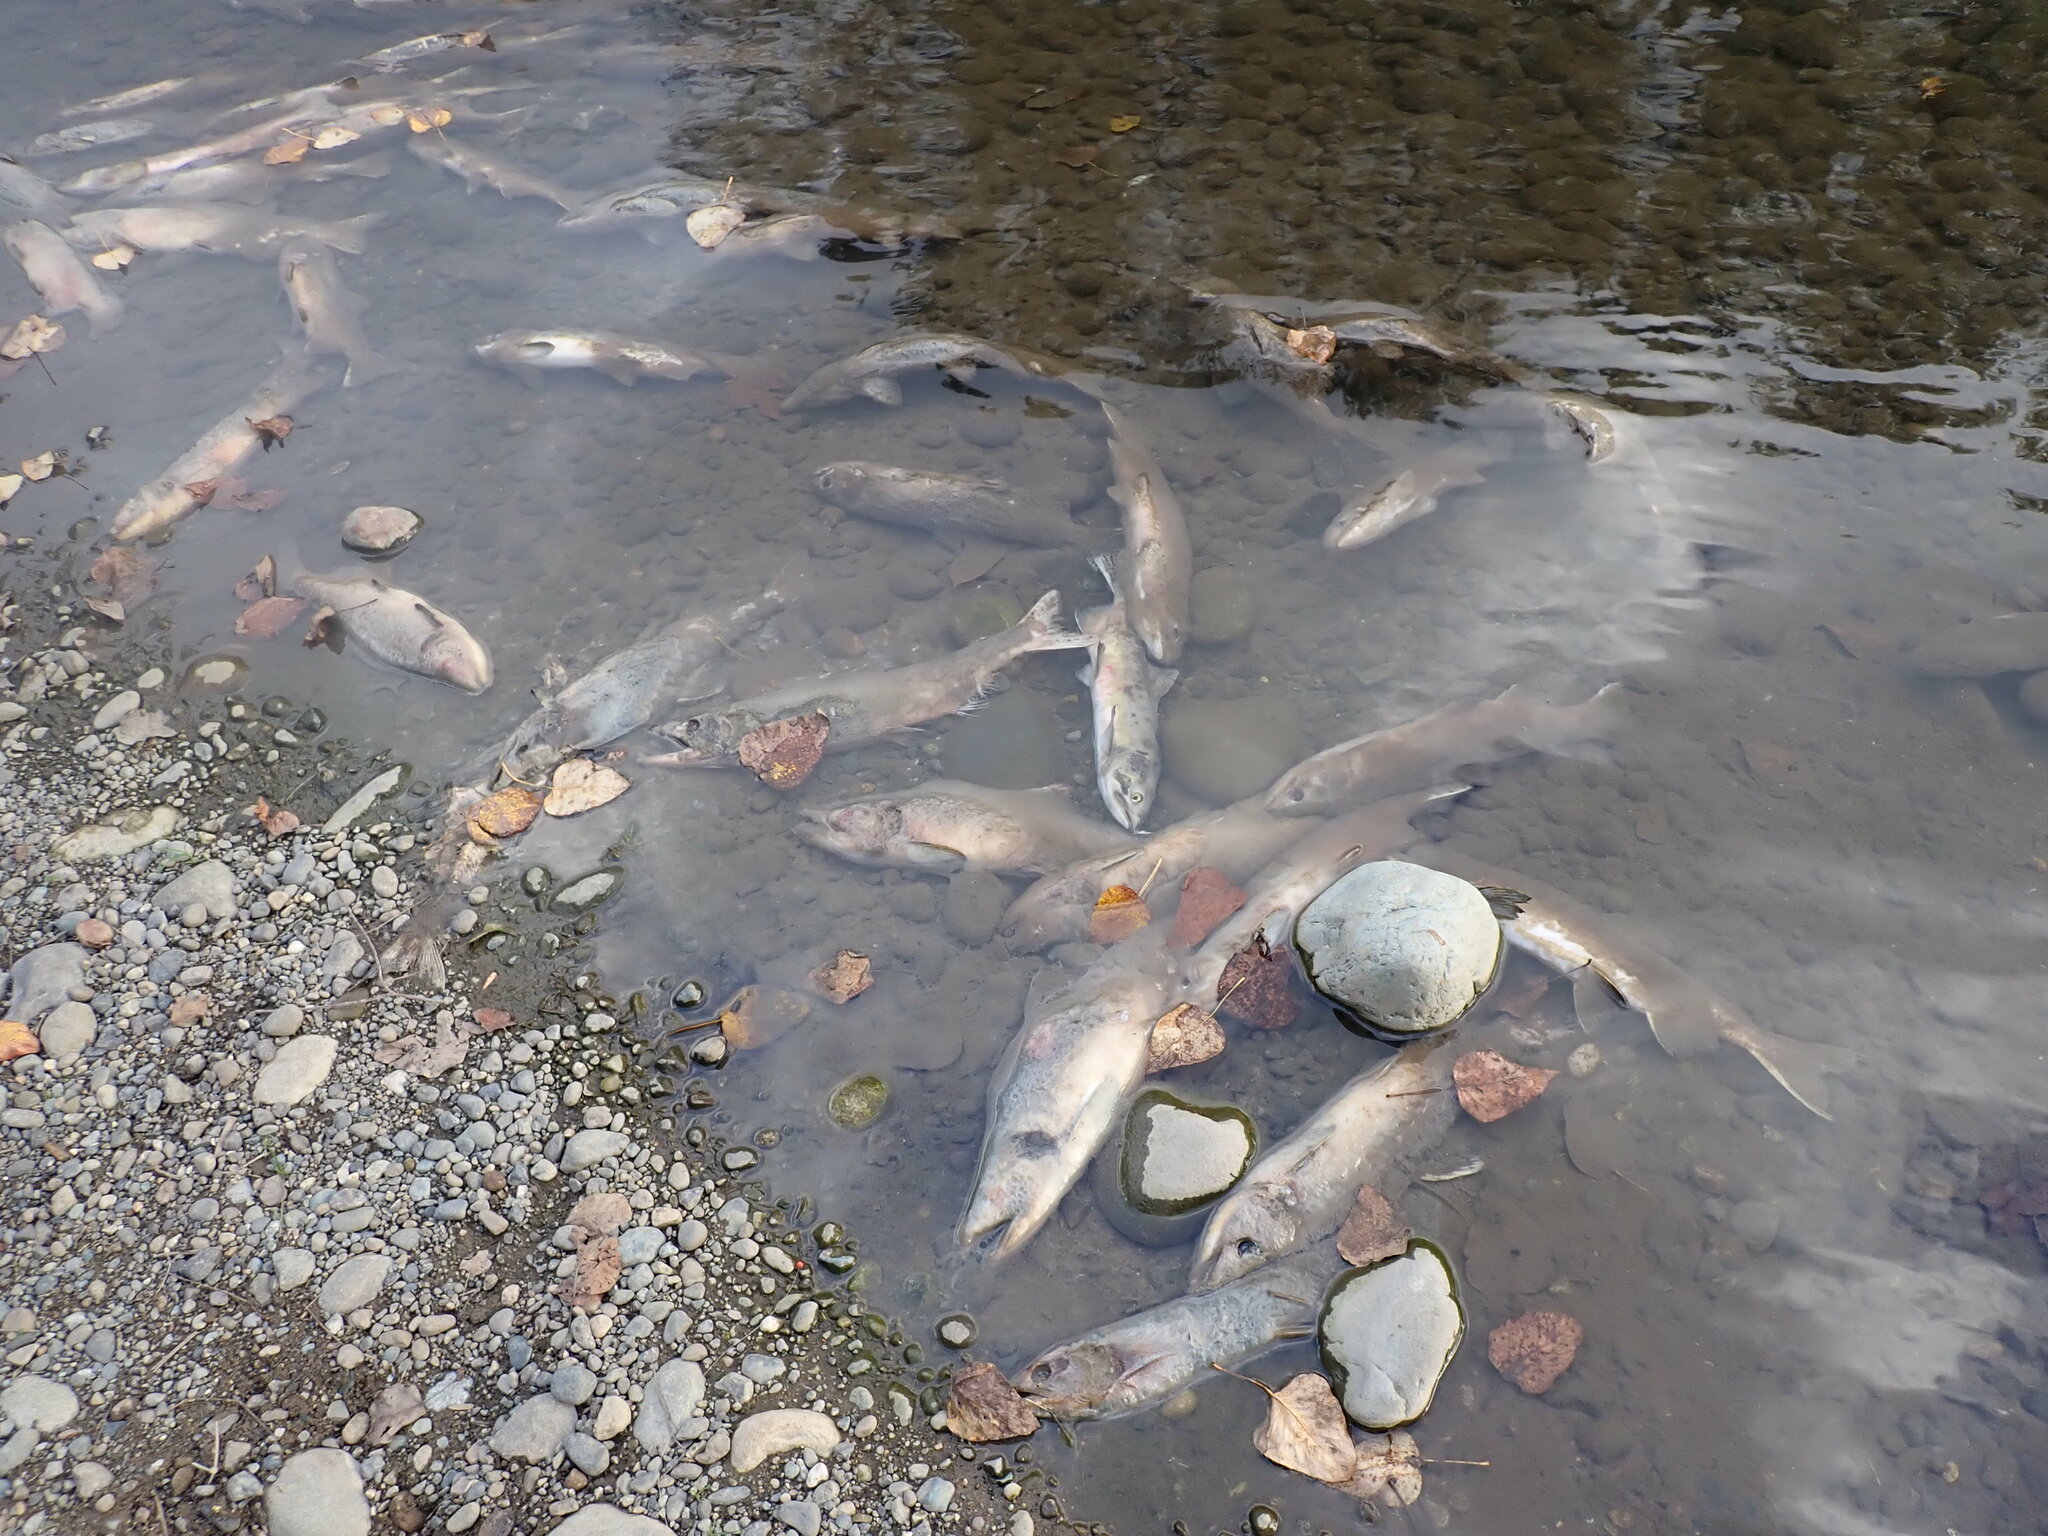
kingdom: Animalia
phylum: Chordata
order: Salmoniformes
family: Salmonidae
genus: Oncorhynchus
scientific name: Oncorhynchus gorbuscha
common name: Humpback salmon
